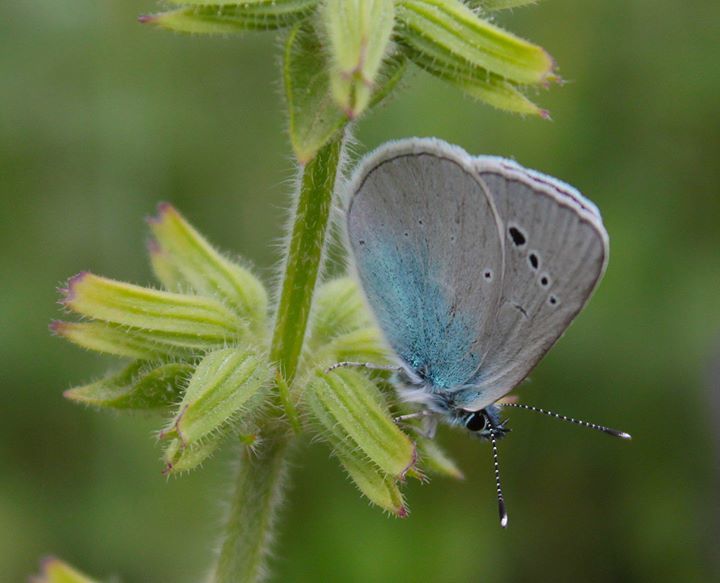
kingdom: Animalia
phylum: Arthropoda
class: Insecta
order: Lepidoptera
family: Lycaenidae
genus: Glaucopsyche
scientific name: Glaucopsyche alexis
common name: Green-underside blue
